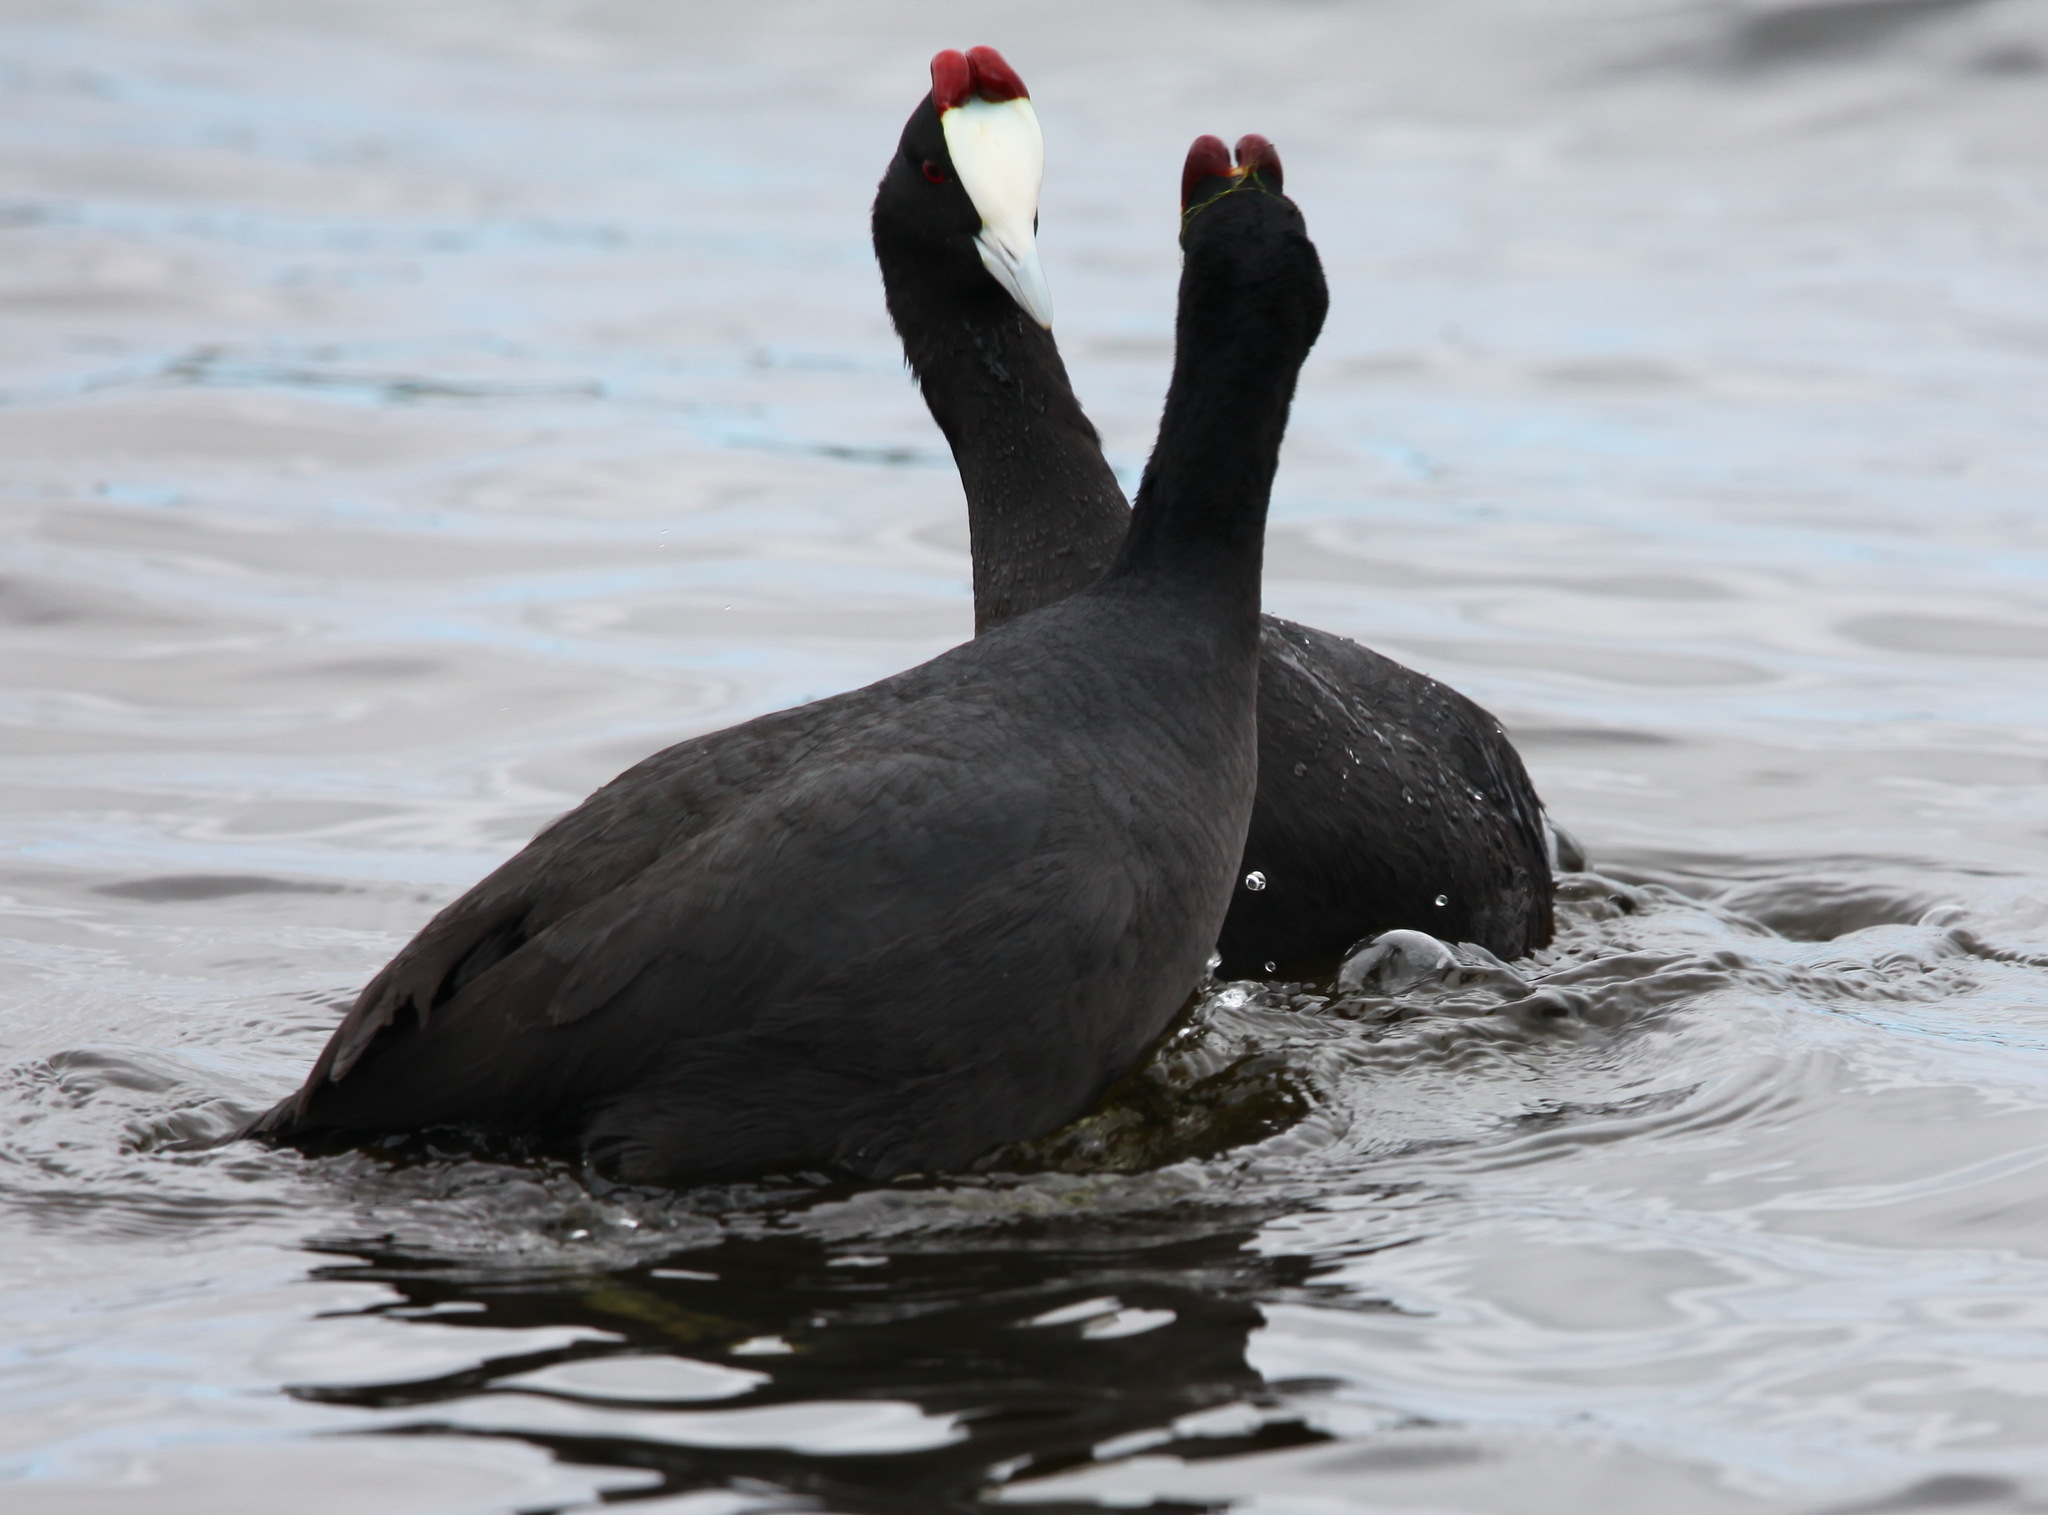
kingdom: Animalia
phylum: Chordata
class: Aves
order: Gruiformes
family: Rallidae
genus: Fulica
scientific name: Fulica cristata
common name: Red-knobbed coot
